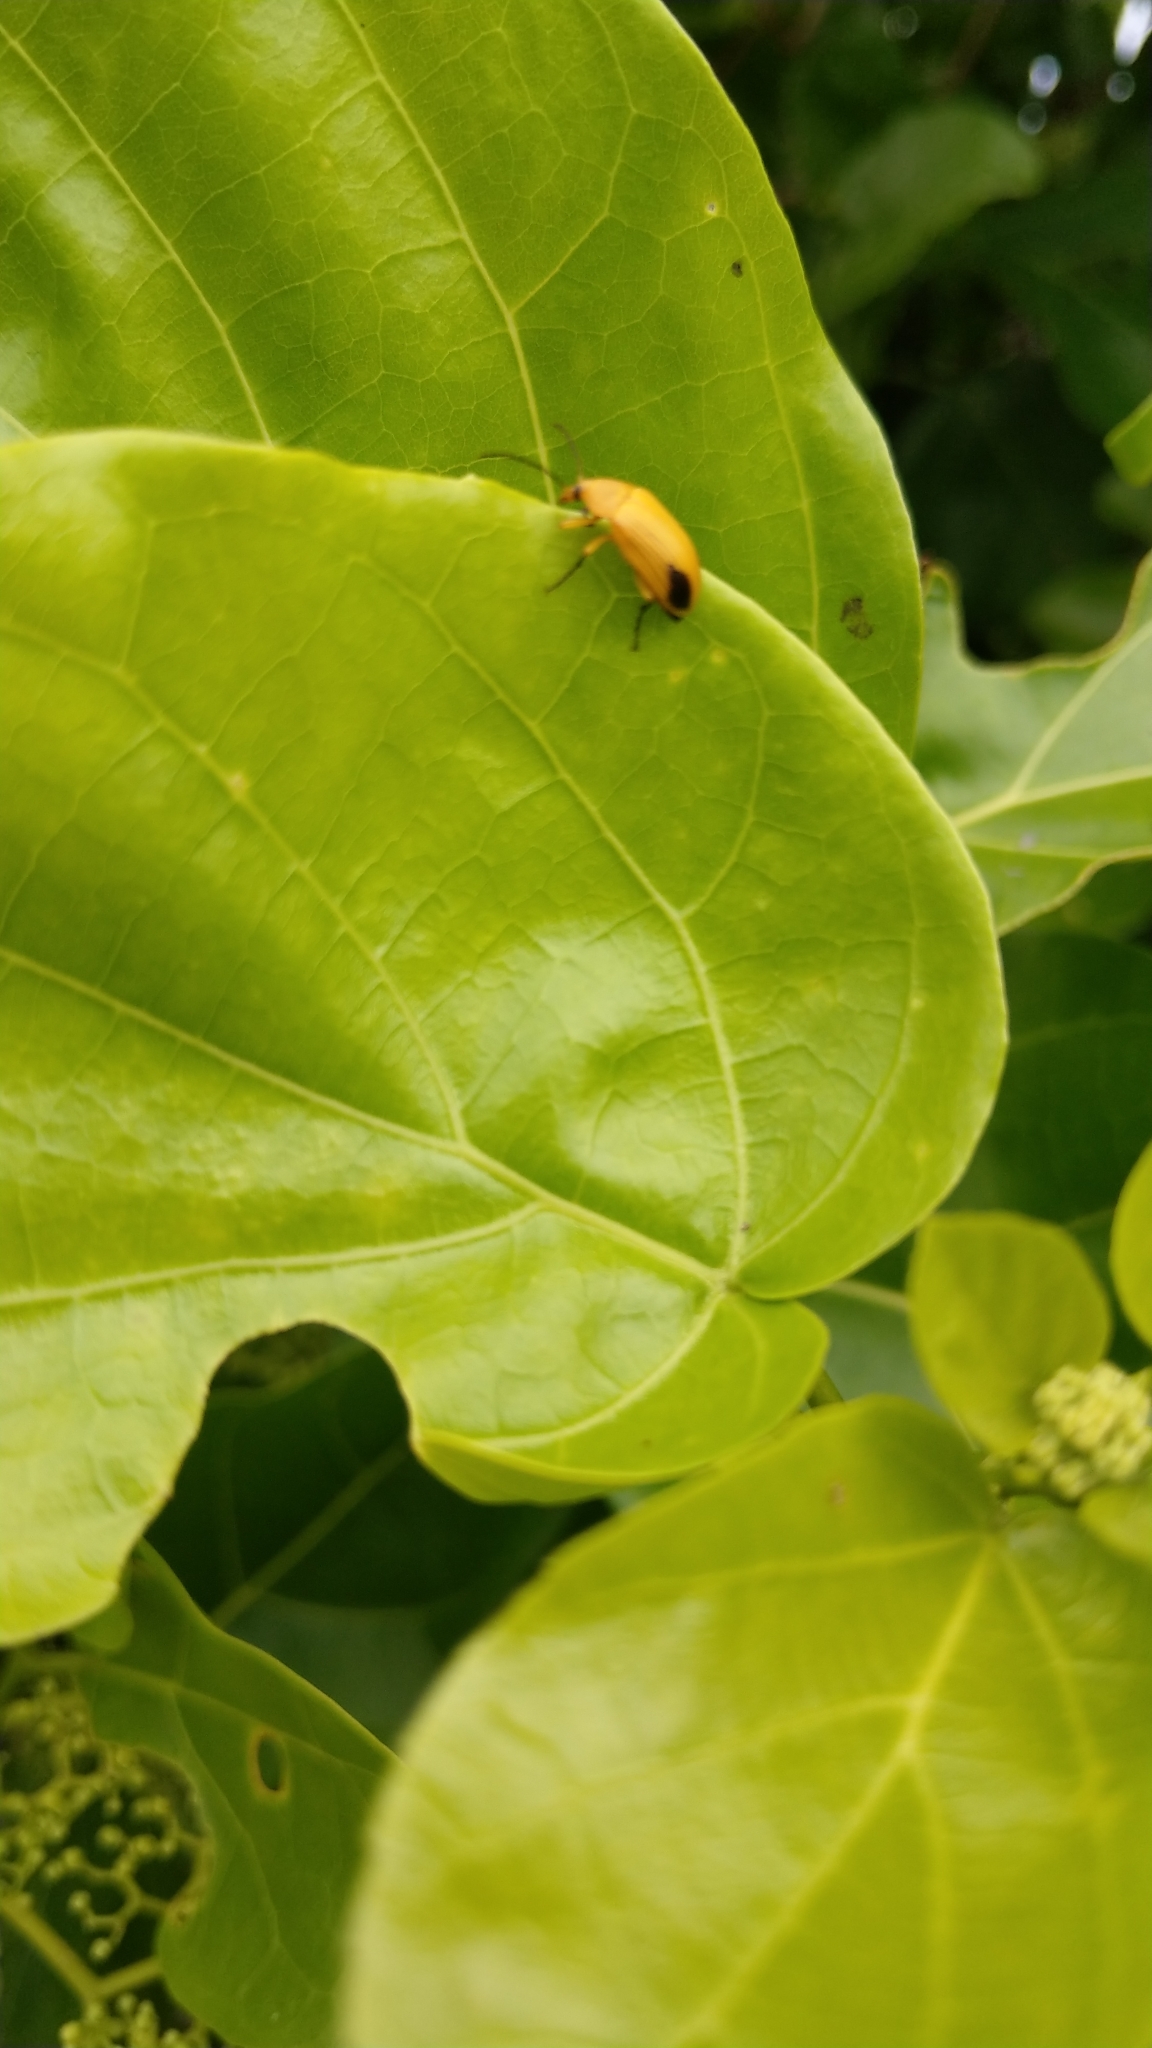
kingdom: Animalia
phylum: Arthropoda
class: Insecta
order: Coleoptera
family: Tenebrionidae
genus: Cistelomorpha
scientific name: Cistelomorpha bina
